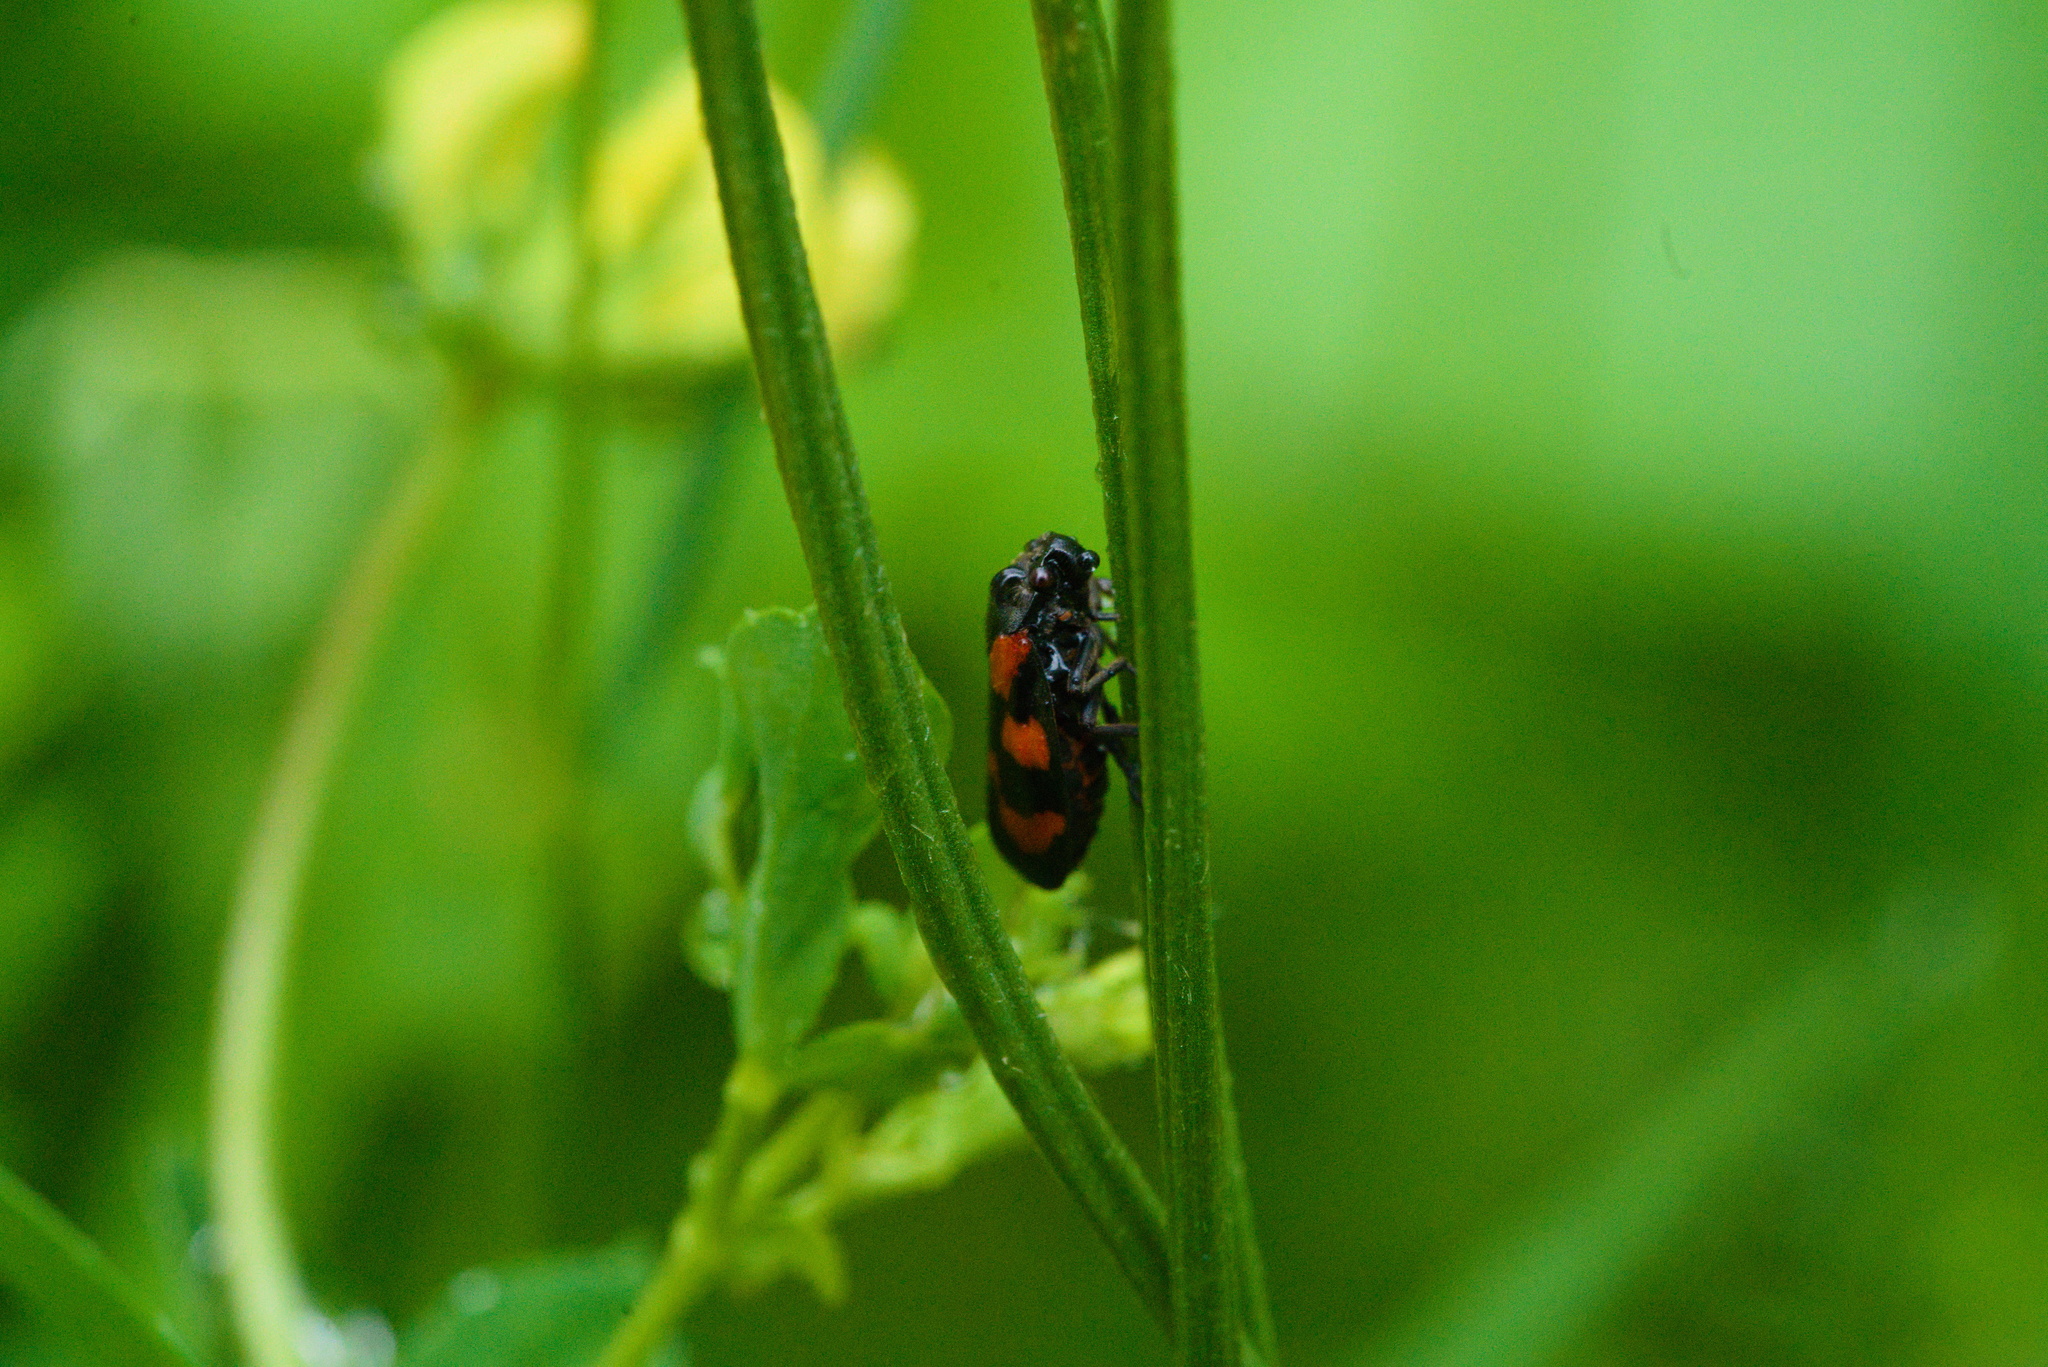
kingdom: Animalia
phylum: Arthropoda
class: Insecta
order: Hemiptera
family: Cercopidae
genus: Cercopis
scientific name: Cercopis vulnerata
